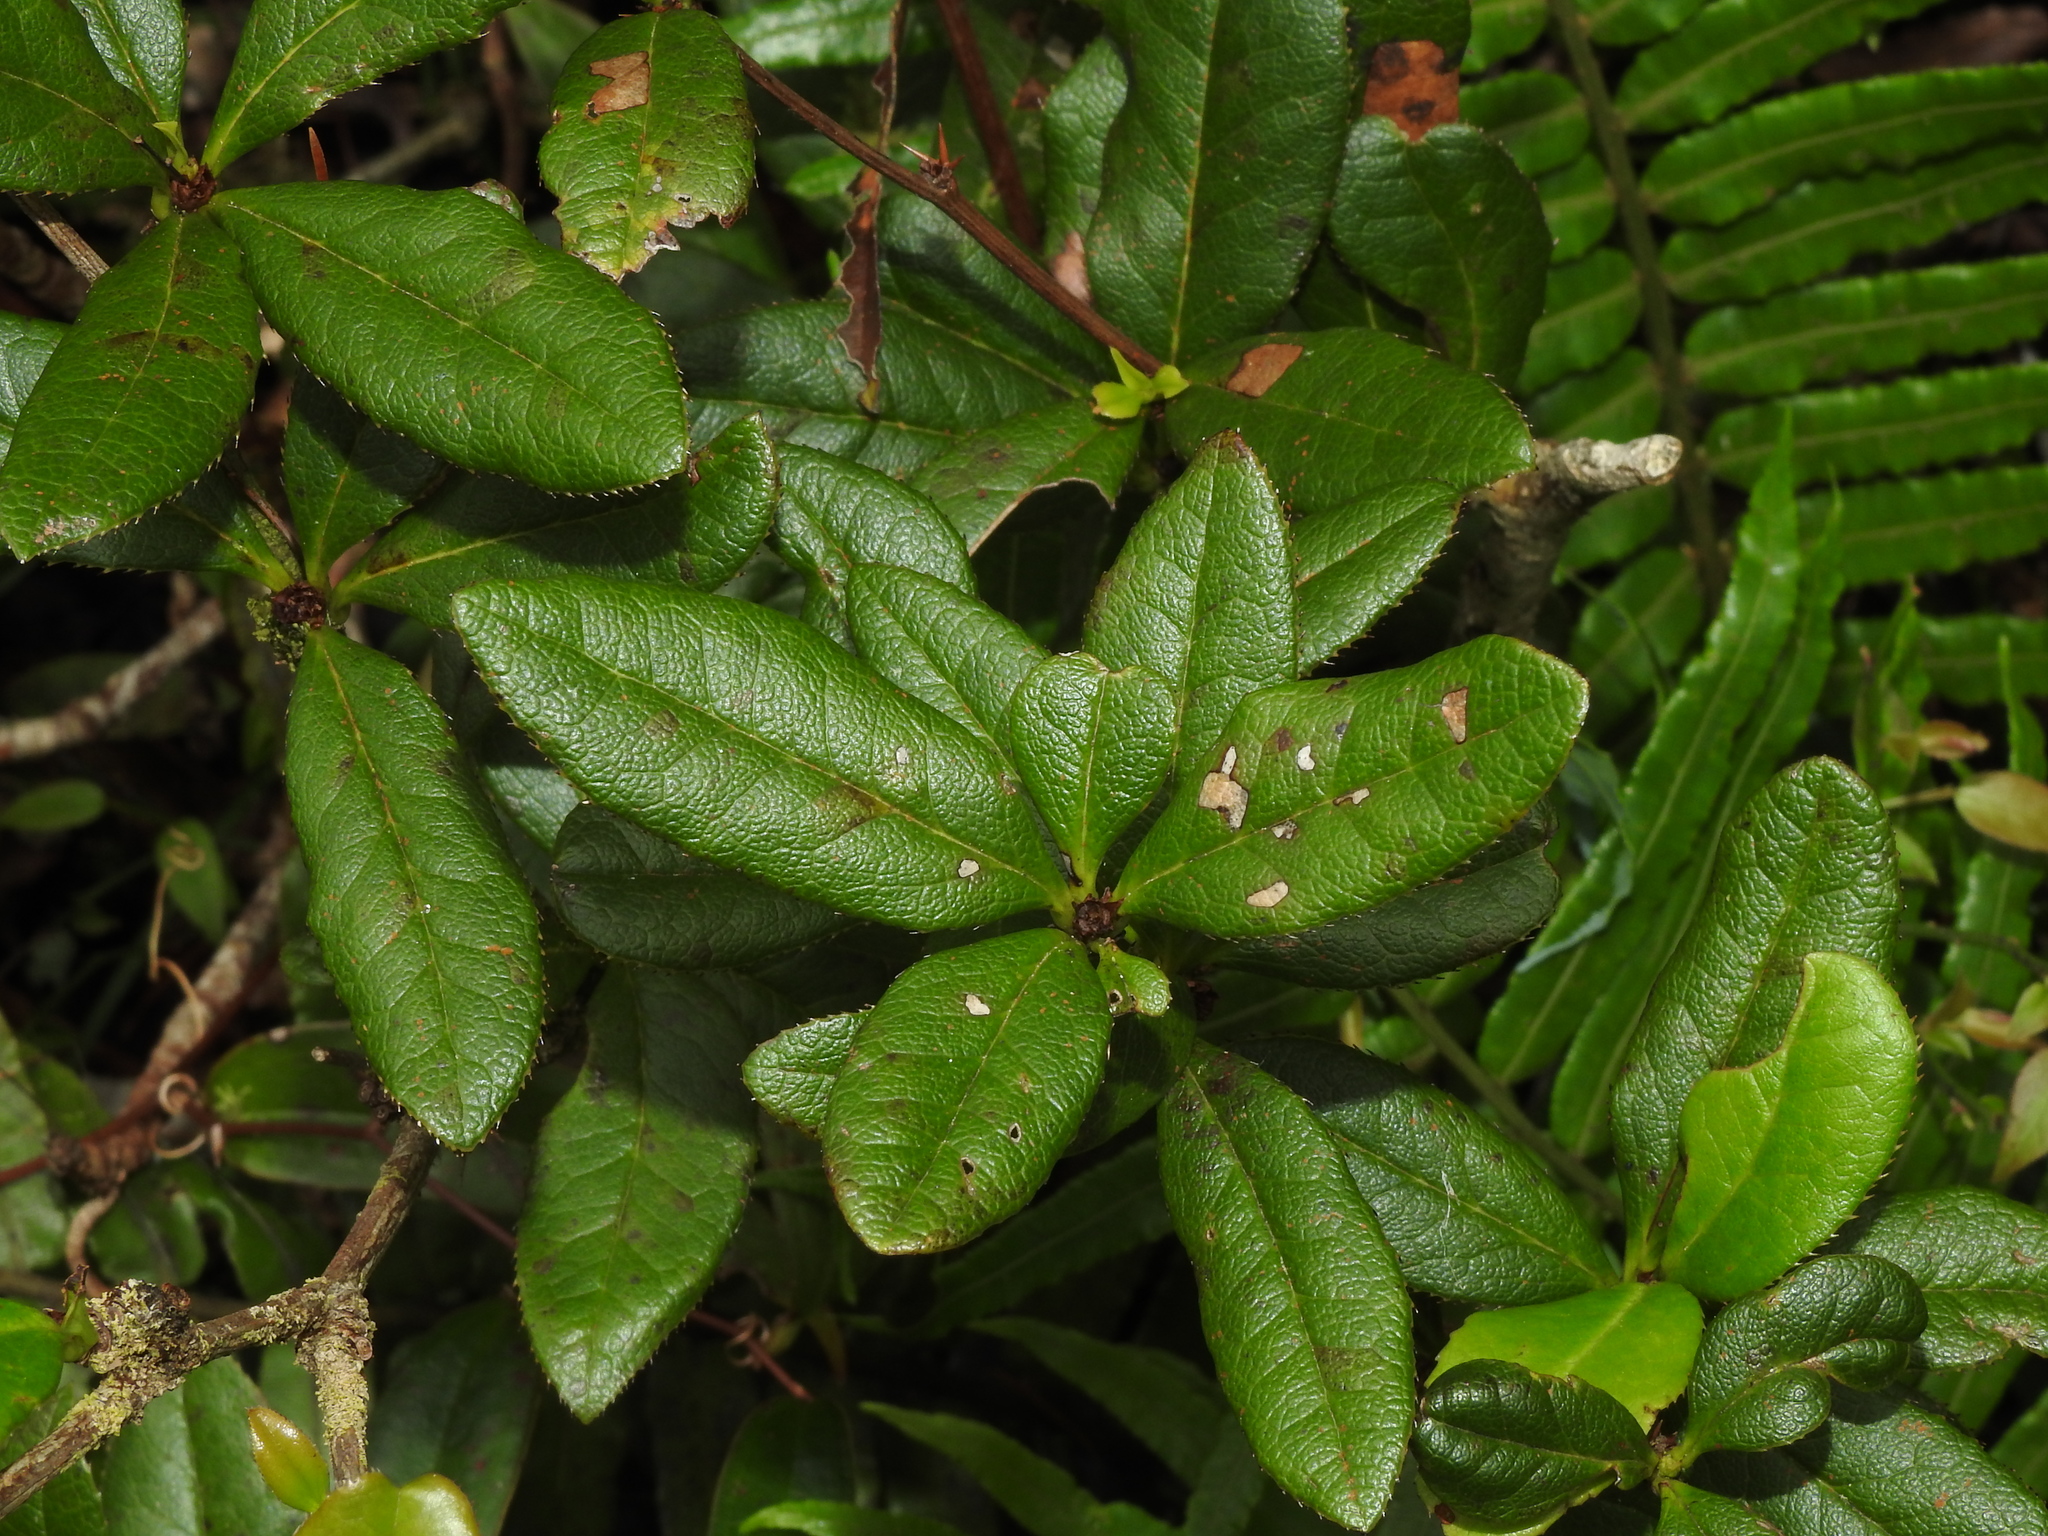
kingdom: Plantae
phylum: Tracheophyta
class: Magnoliopsida
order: Ranunculales
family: Berberidaceae
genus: Berberis
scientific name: Berberis schaaliae
